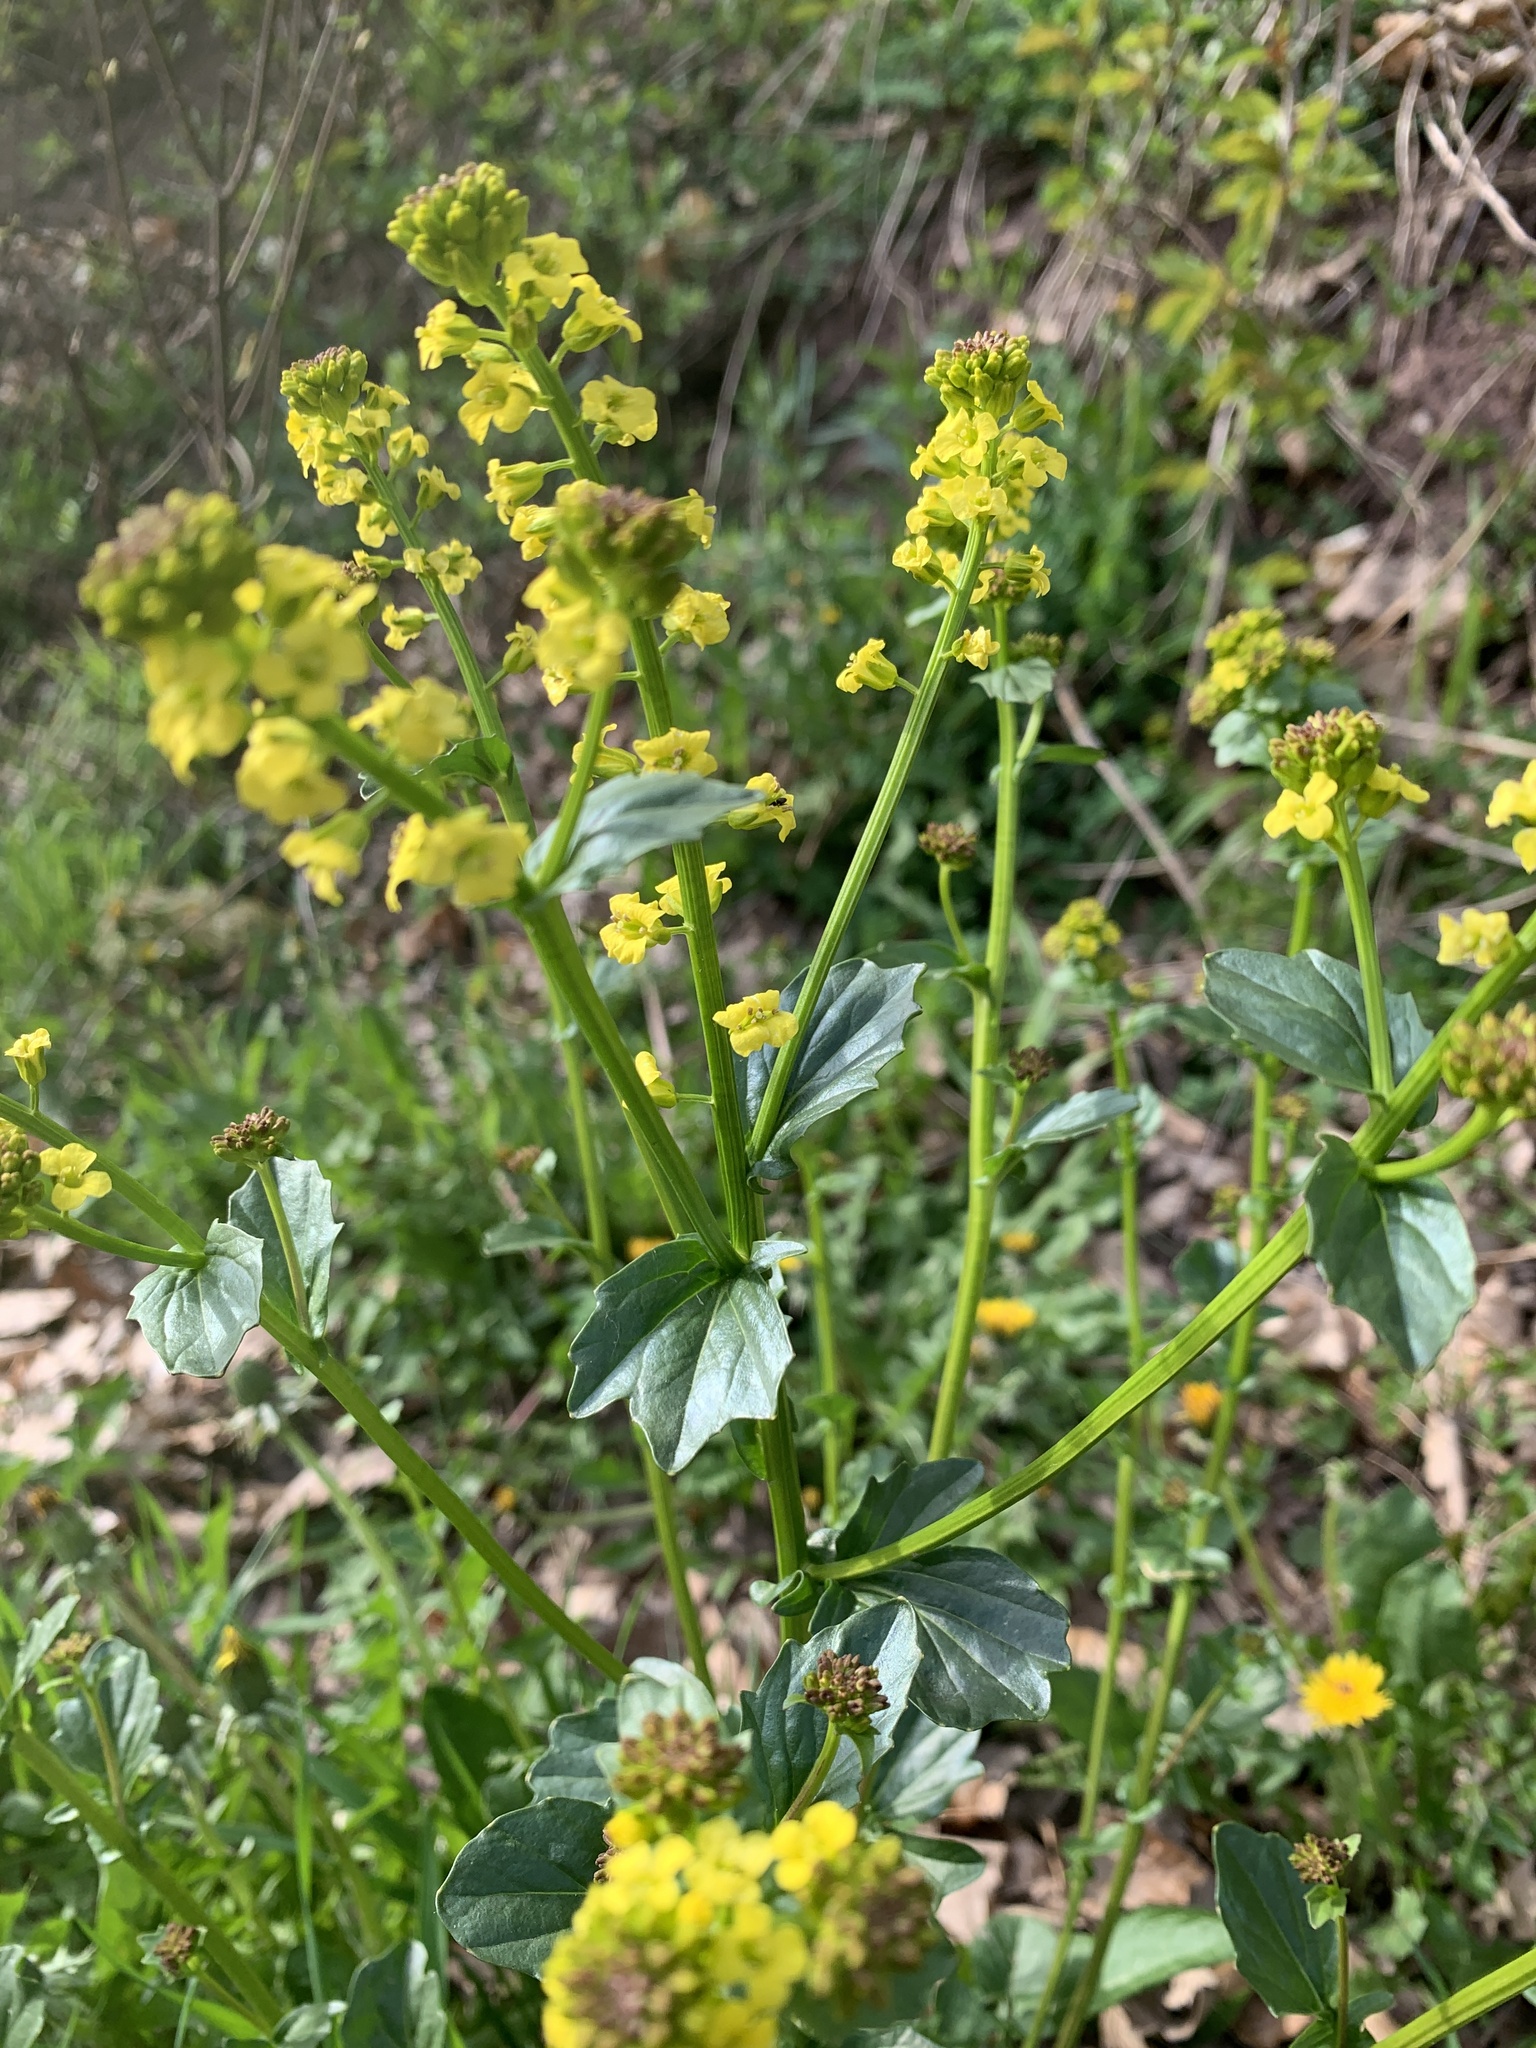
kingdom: Plantae
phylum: Tracheophyta
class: Magnoliopsida
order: Brassicales
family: Brassicaceae
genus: Barbarea
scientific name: Barbarea vulgaris
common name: Cressy-greens
